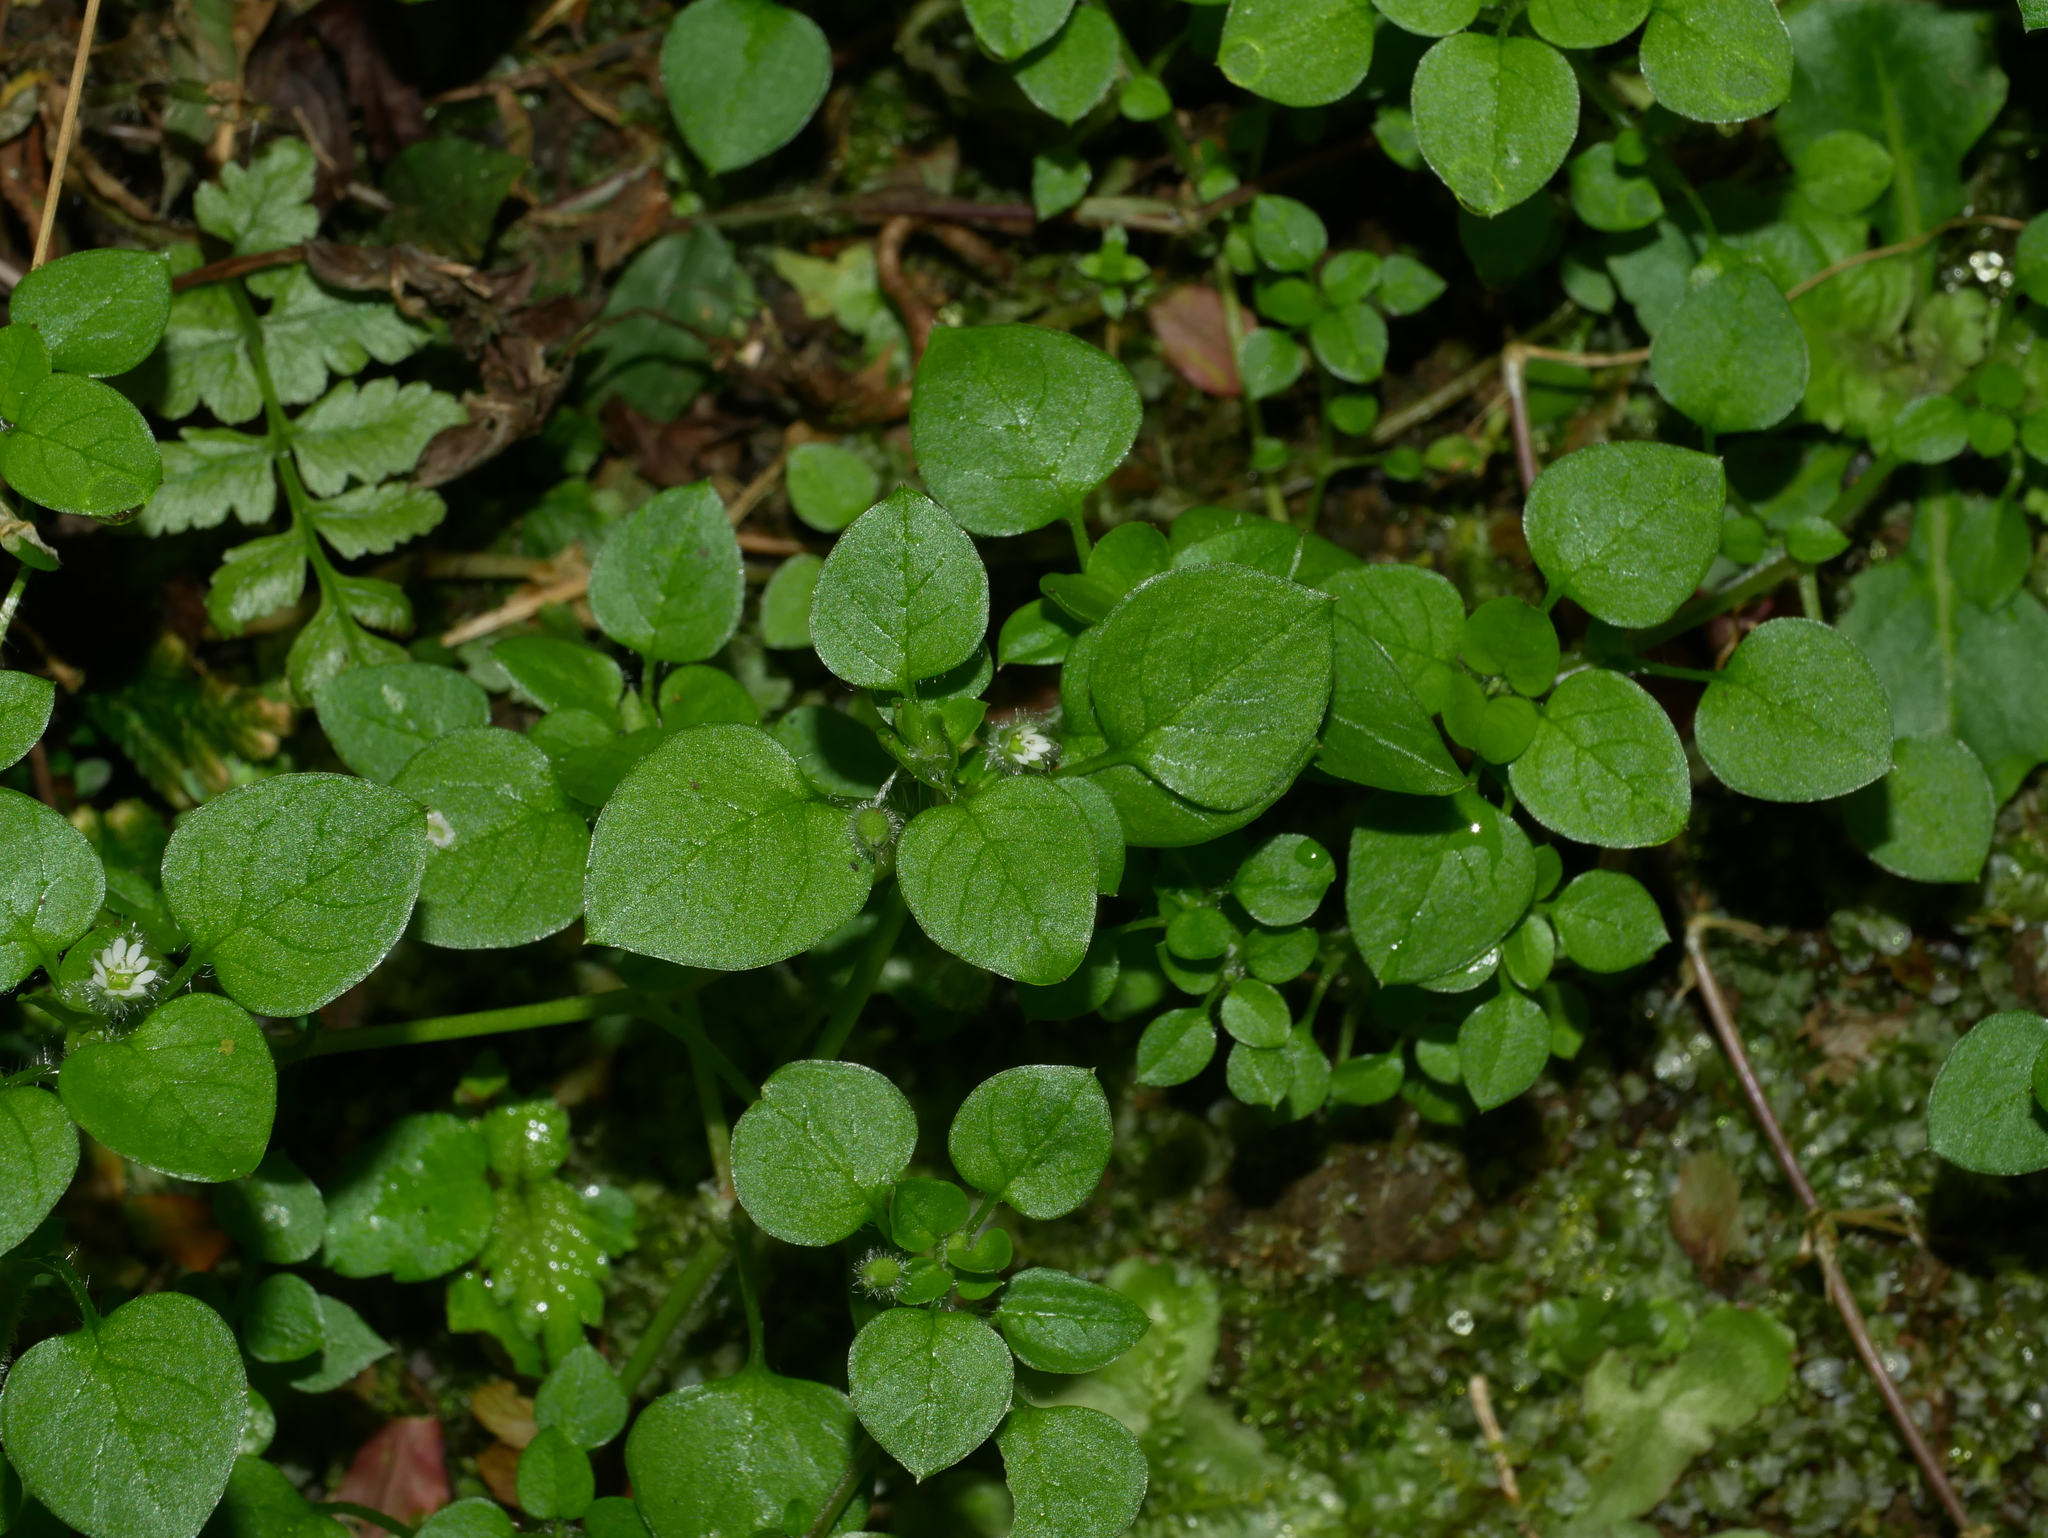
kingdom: Plantae
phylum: Tracheophyta
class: Magnoliopsida
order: Caryophyllales
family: Caryophyllaceae
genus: Stellaria
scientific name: Stellaria media
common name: Common chickweed
